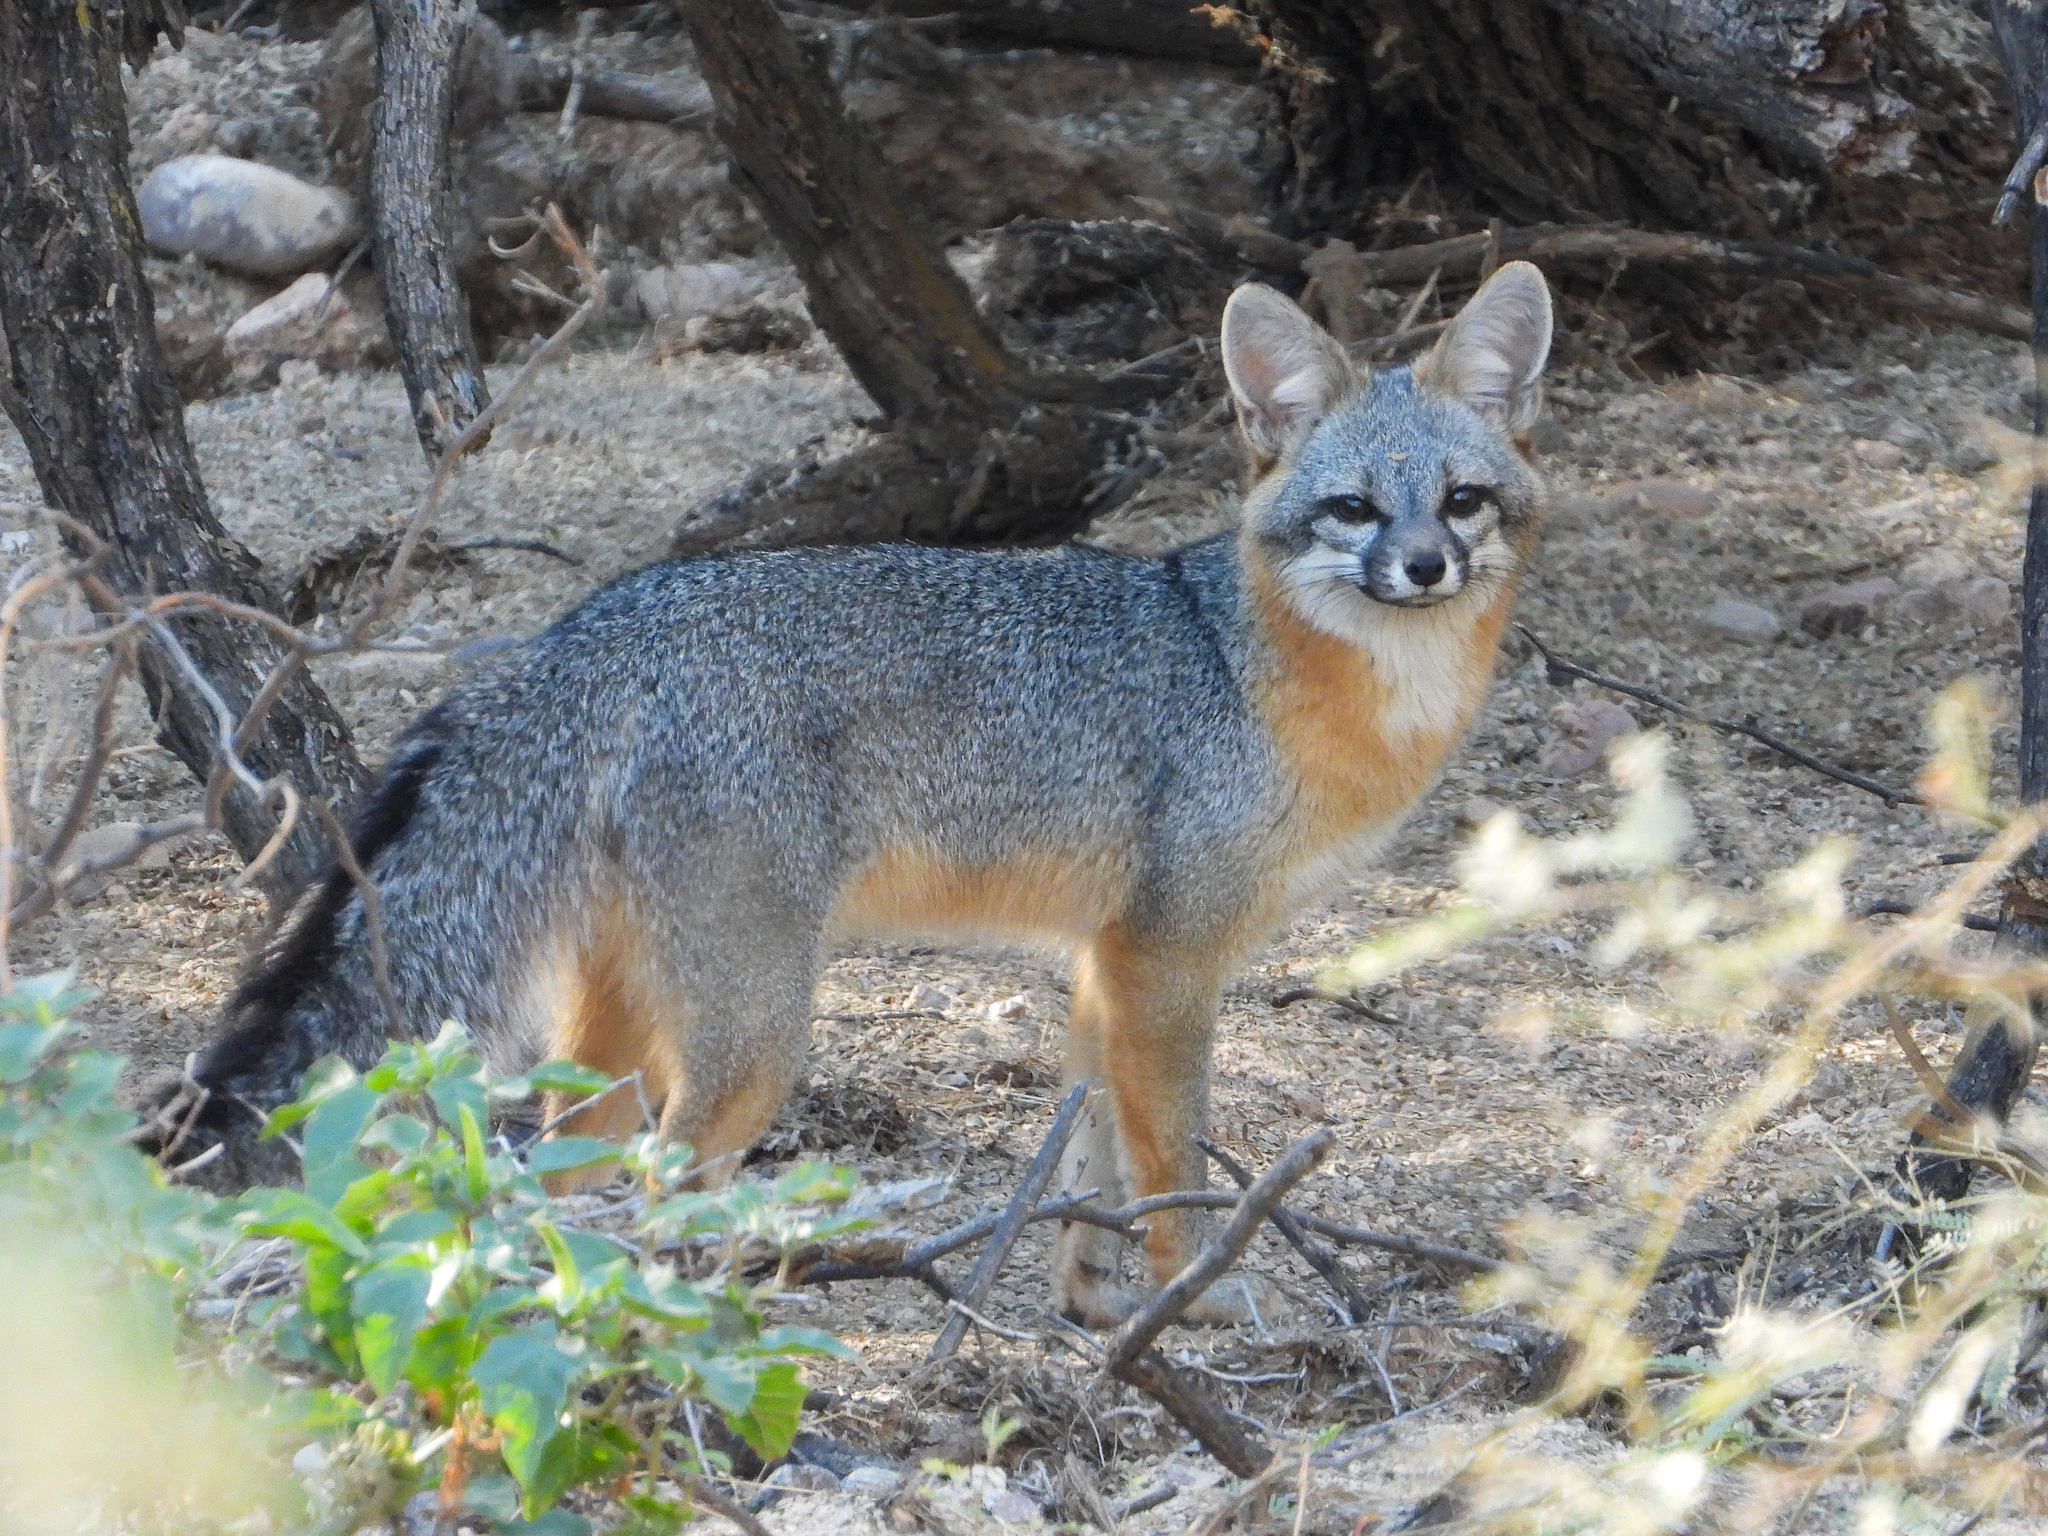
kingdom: Animalia
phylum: Chordata
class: Mammalia
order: Carnivora
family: Canidae
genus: Urocyon
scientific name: Urocyon cinereoargenteus
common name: Gray fox
